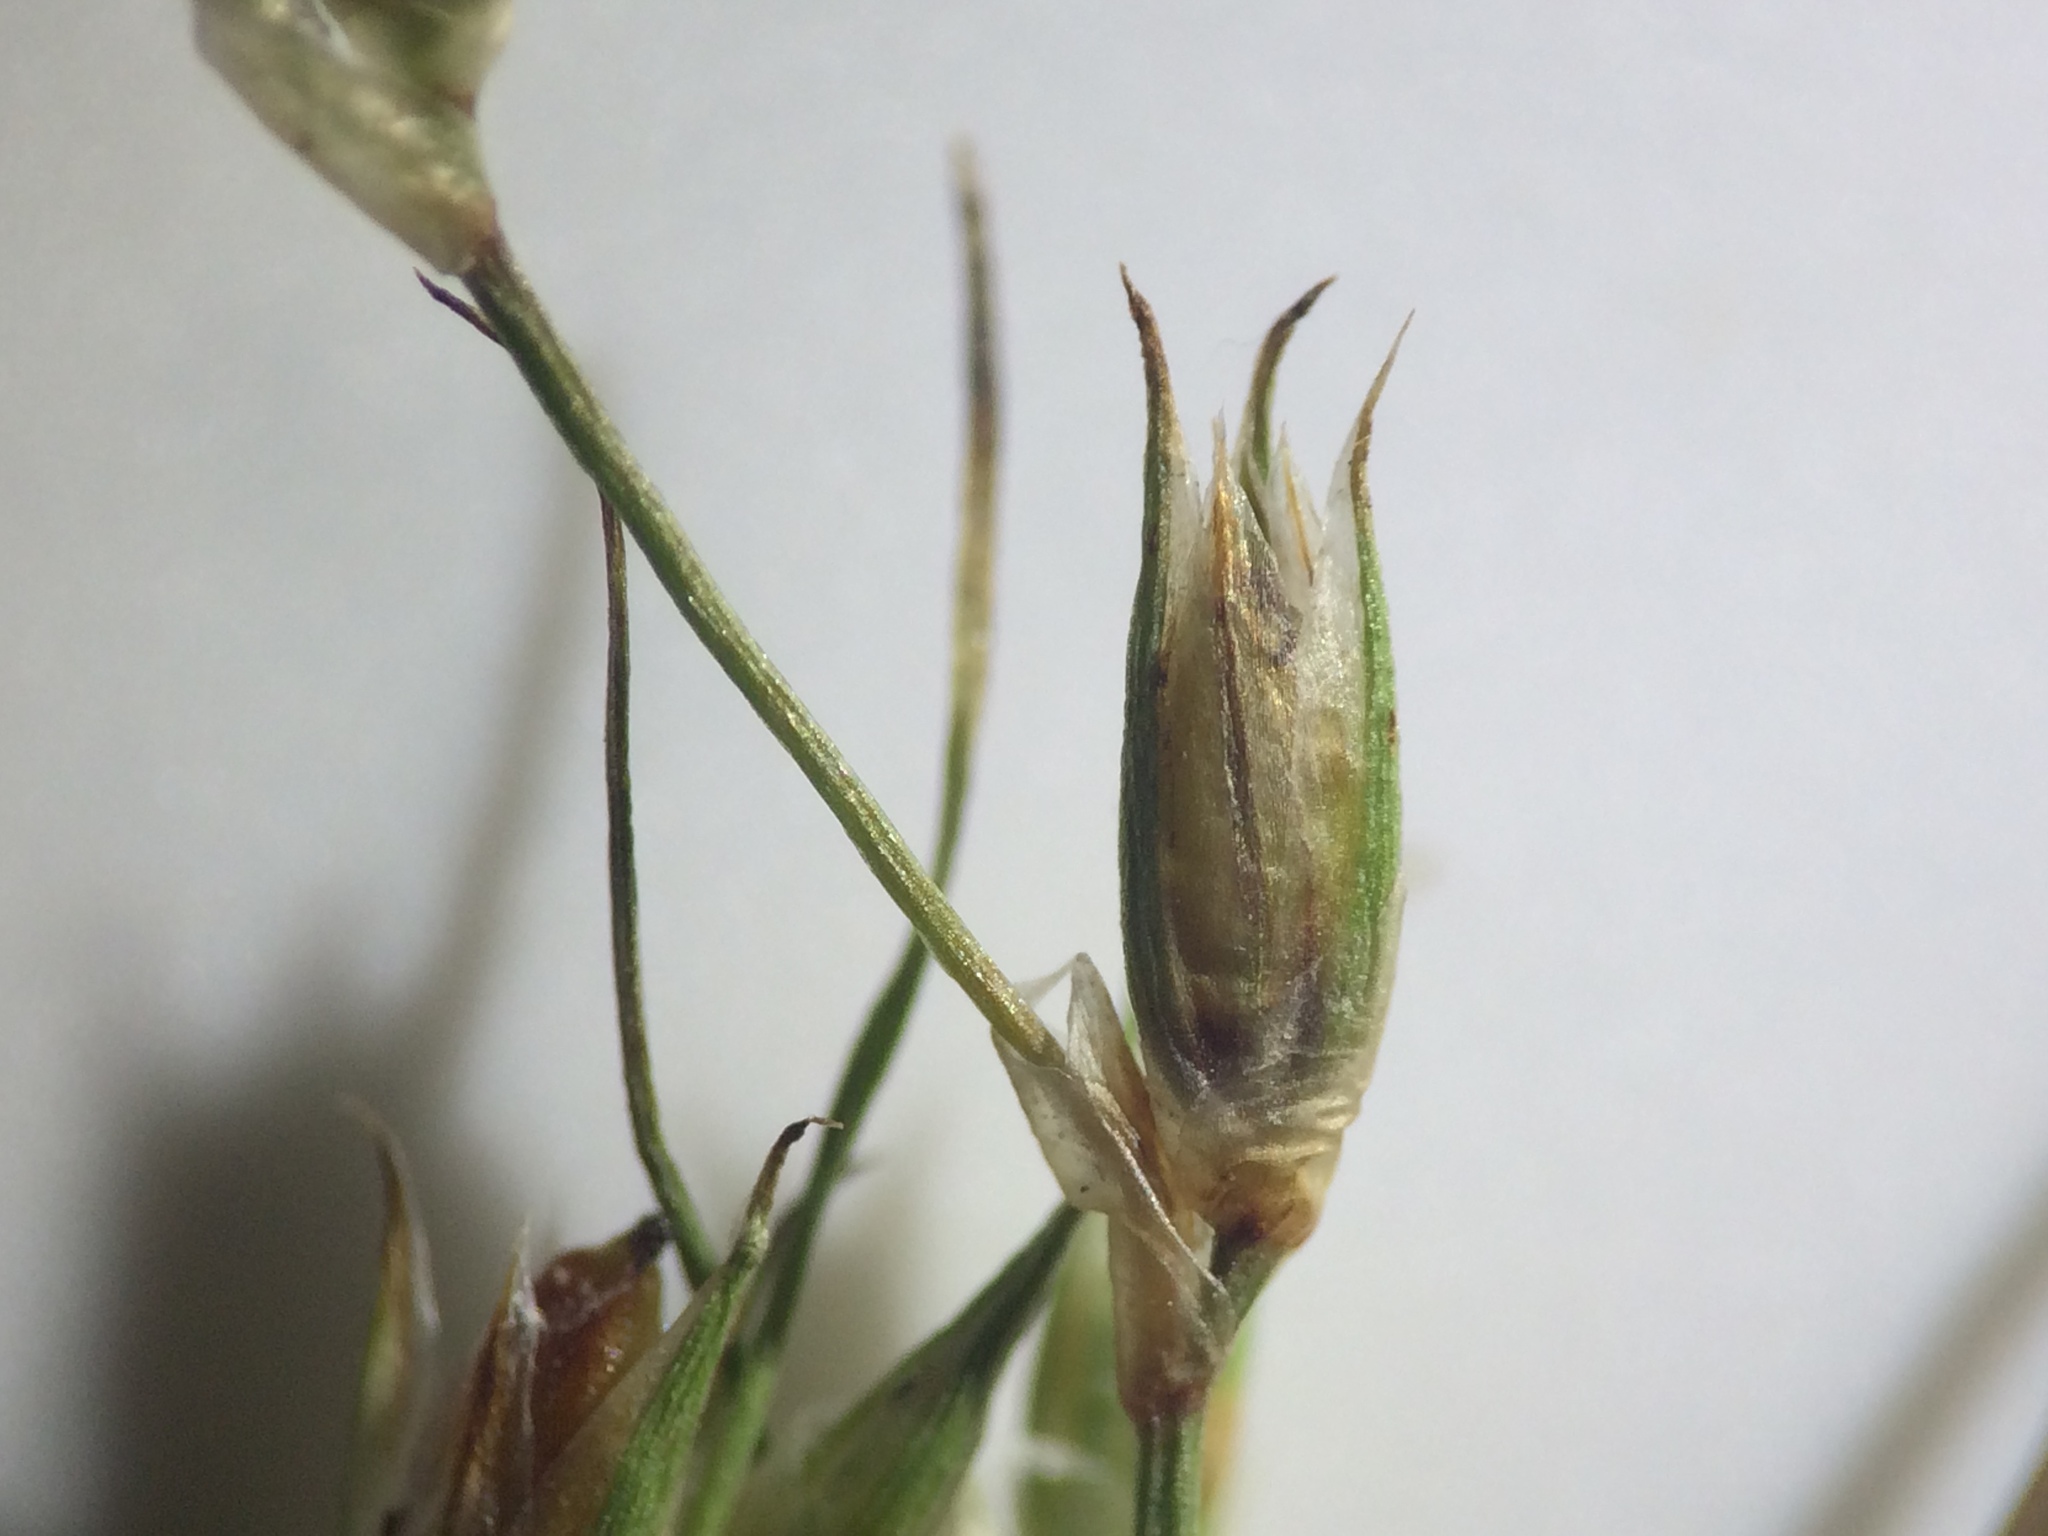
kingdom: Plantae
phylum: Tracheophyta
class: Liliopsida
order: Poales
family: Juncaceae
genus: Juncus
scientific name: Juncus bufonius
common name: Toad rush
